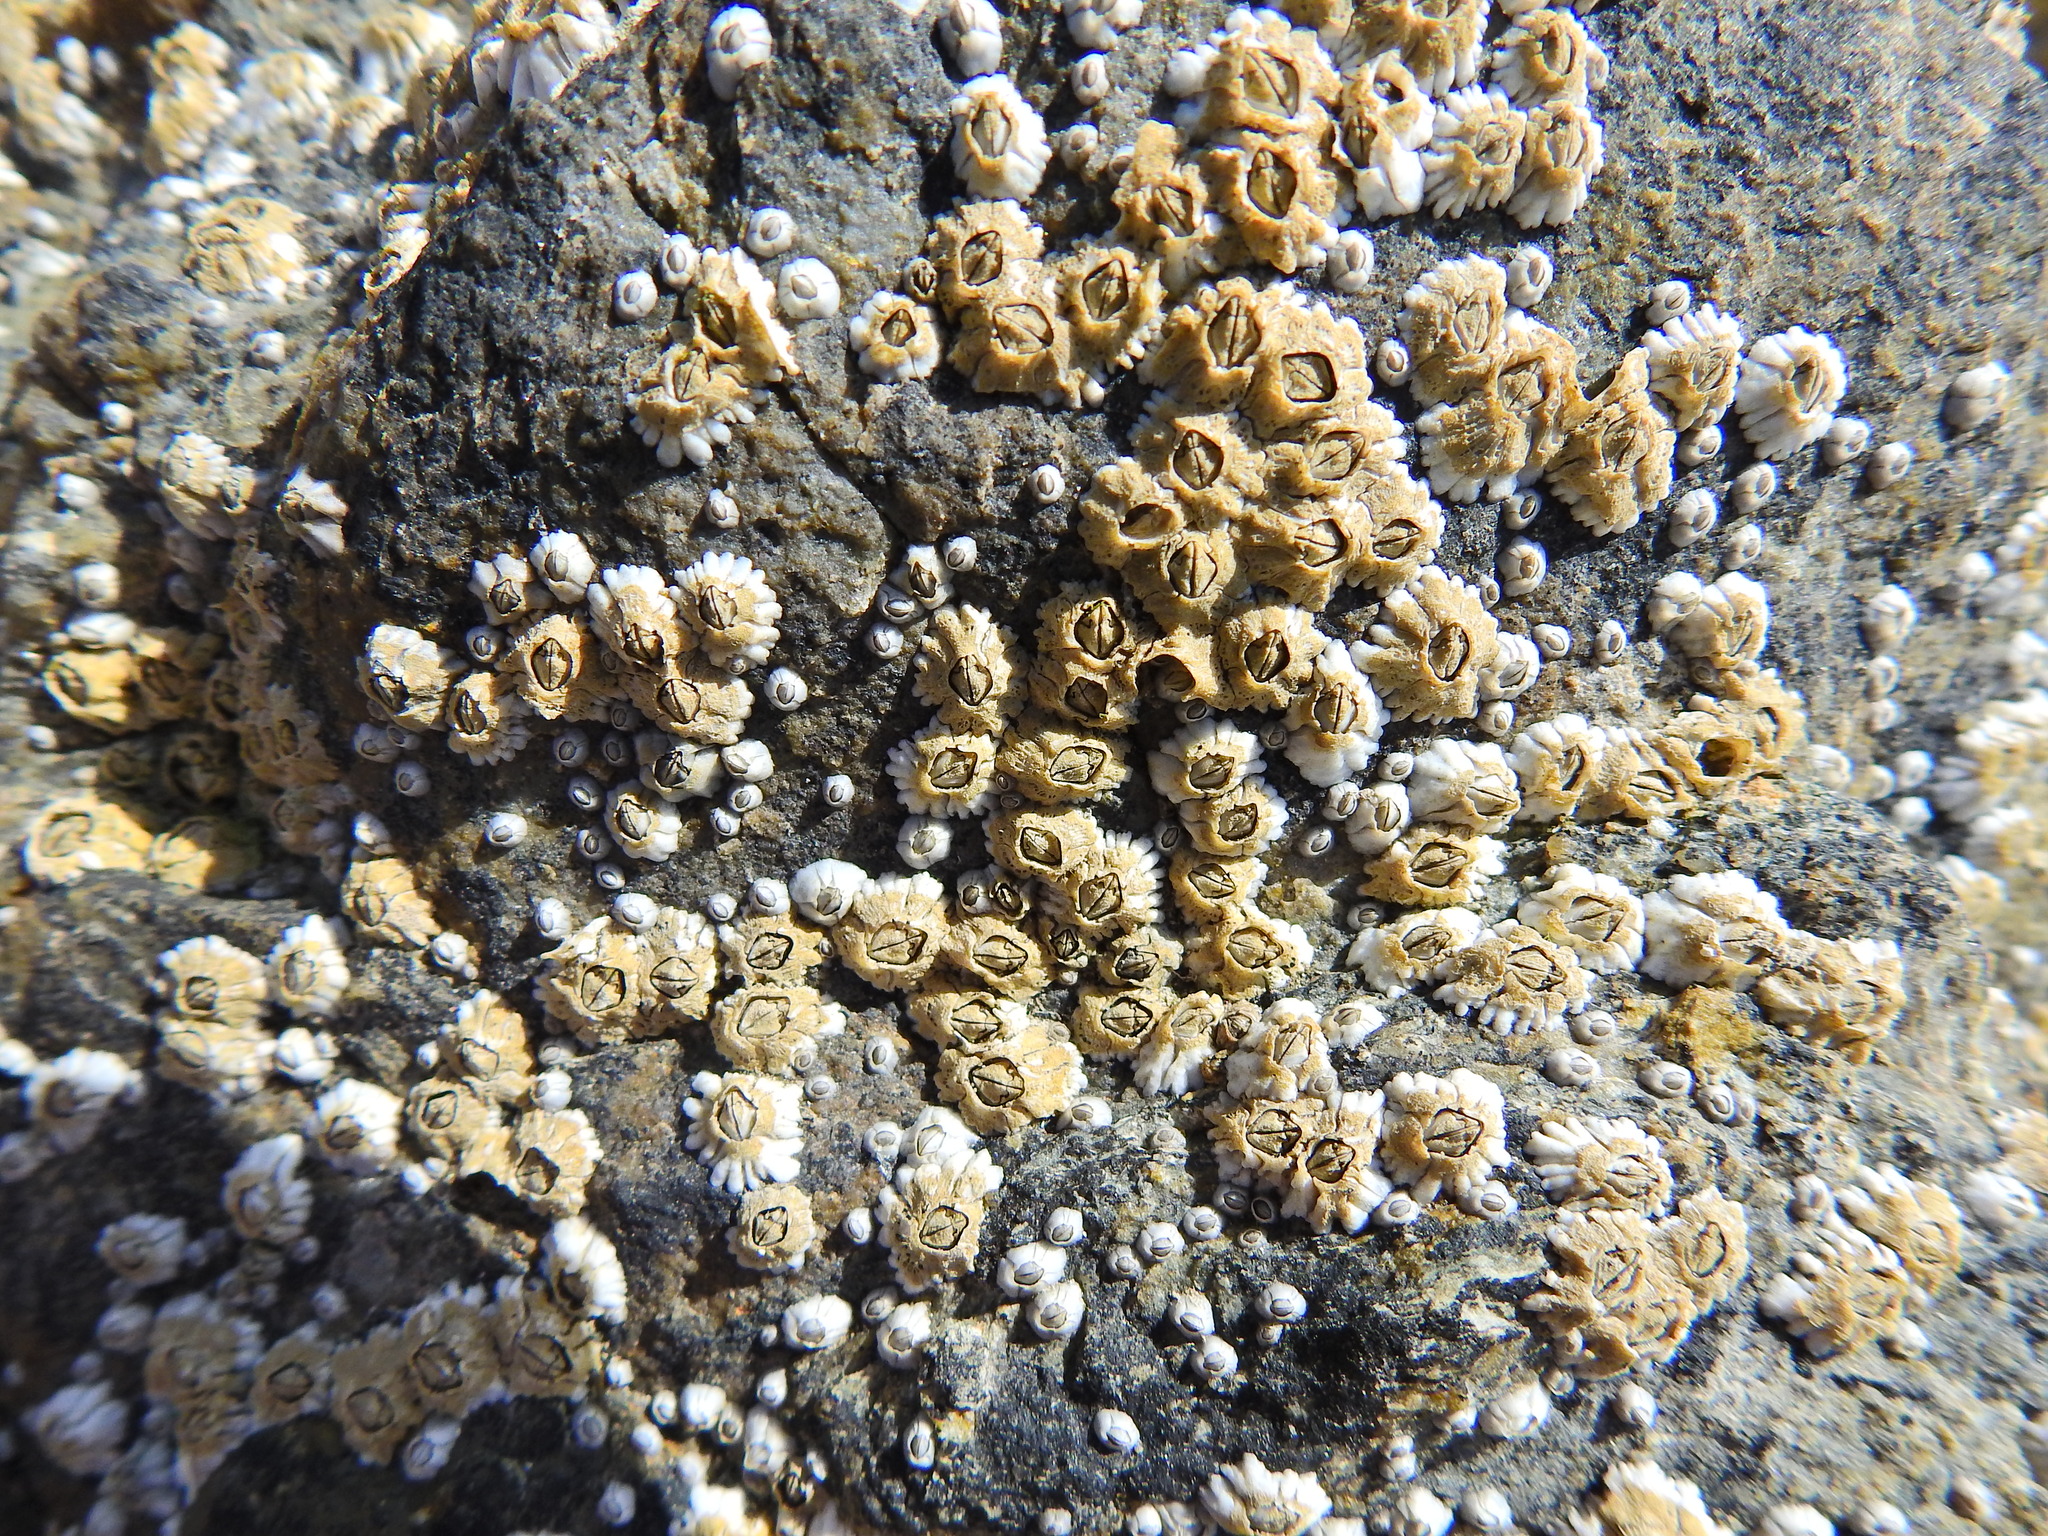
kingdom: Animalia
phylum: Arthropoda
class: Maxillopoda
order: Sessilia
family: Archaeobalanidae
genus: Semibalanus
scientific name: Semibalanus balanoides
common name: Acorn barnacle
